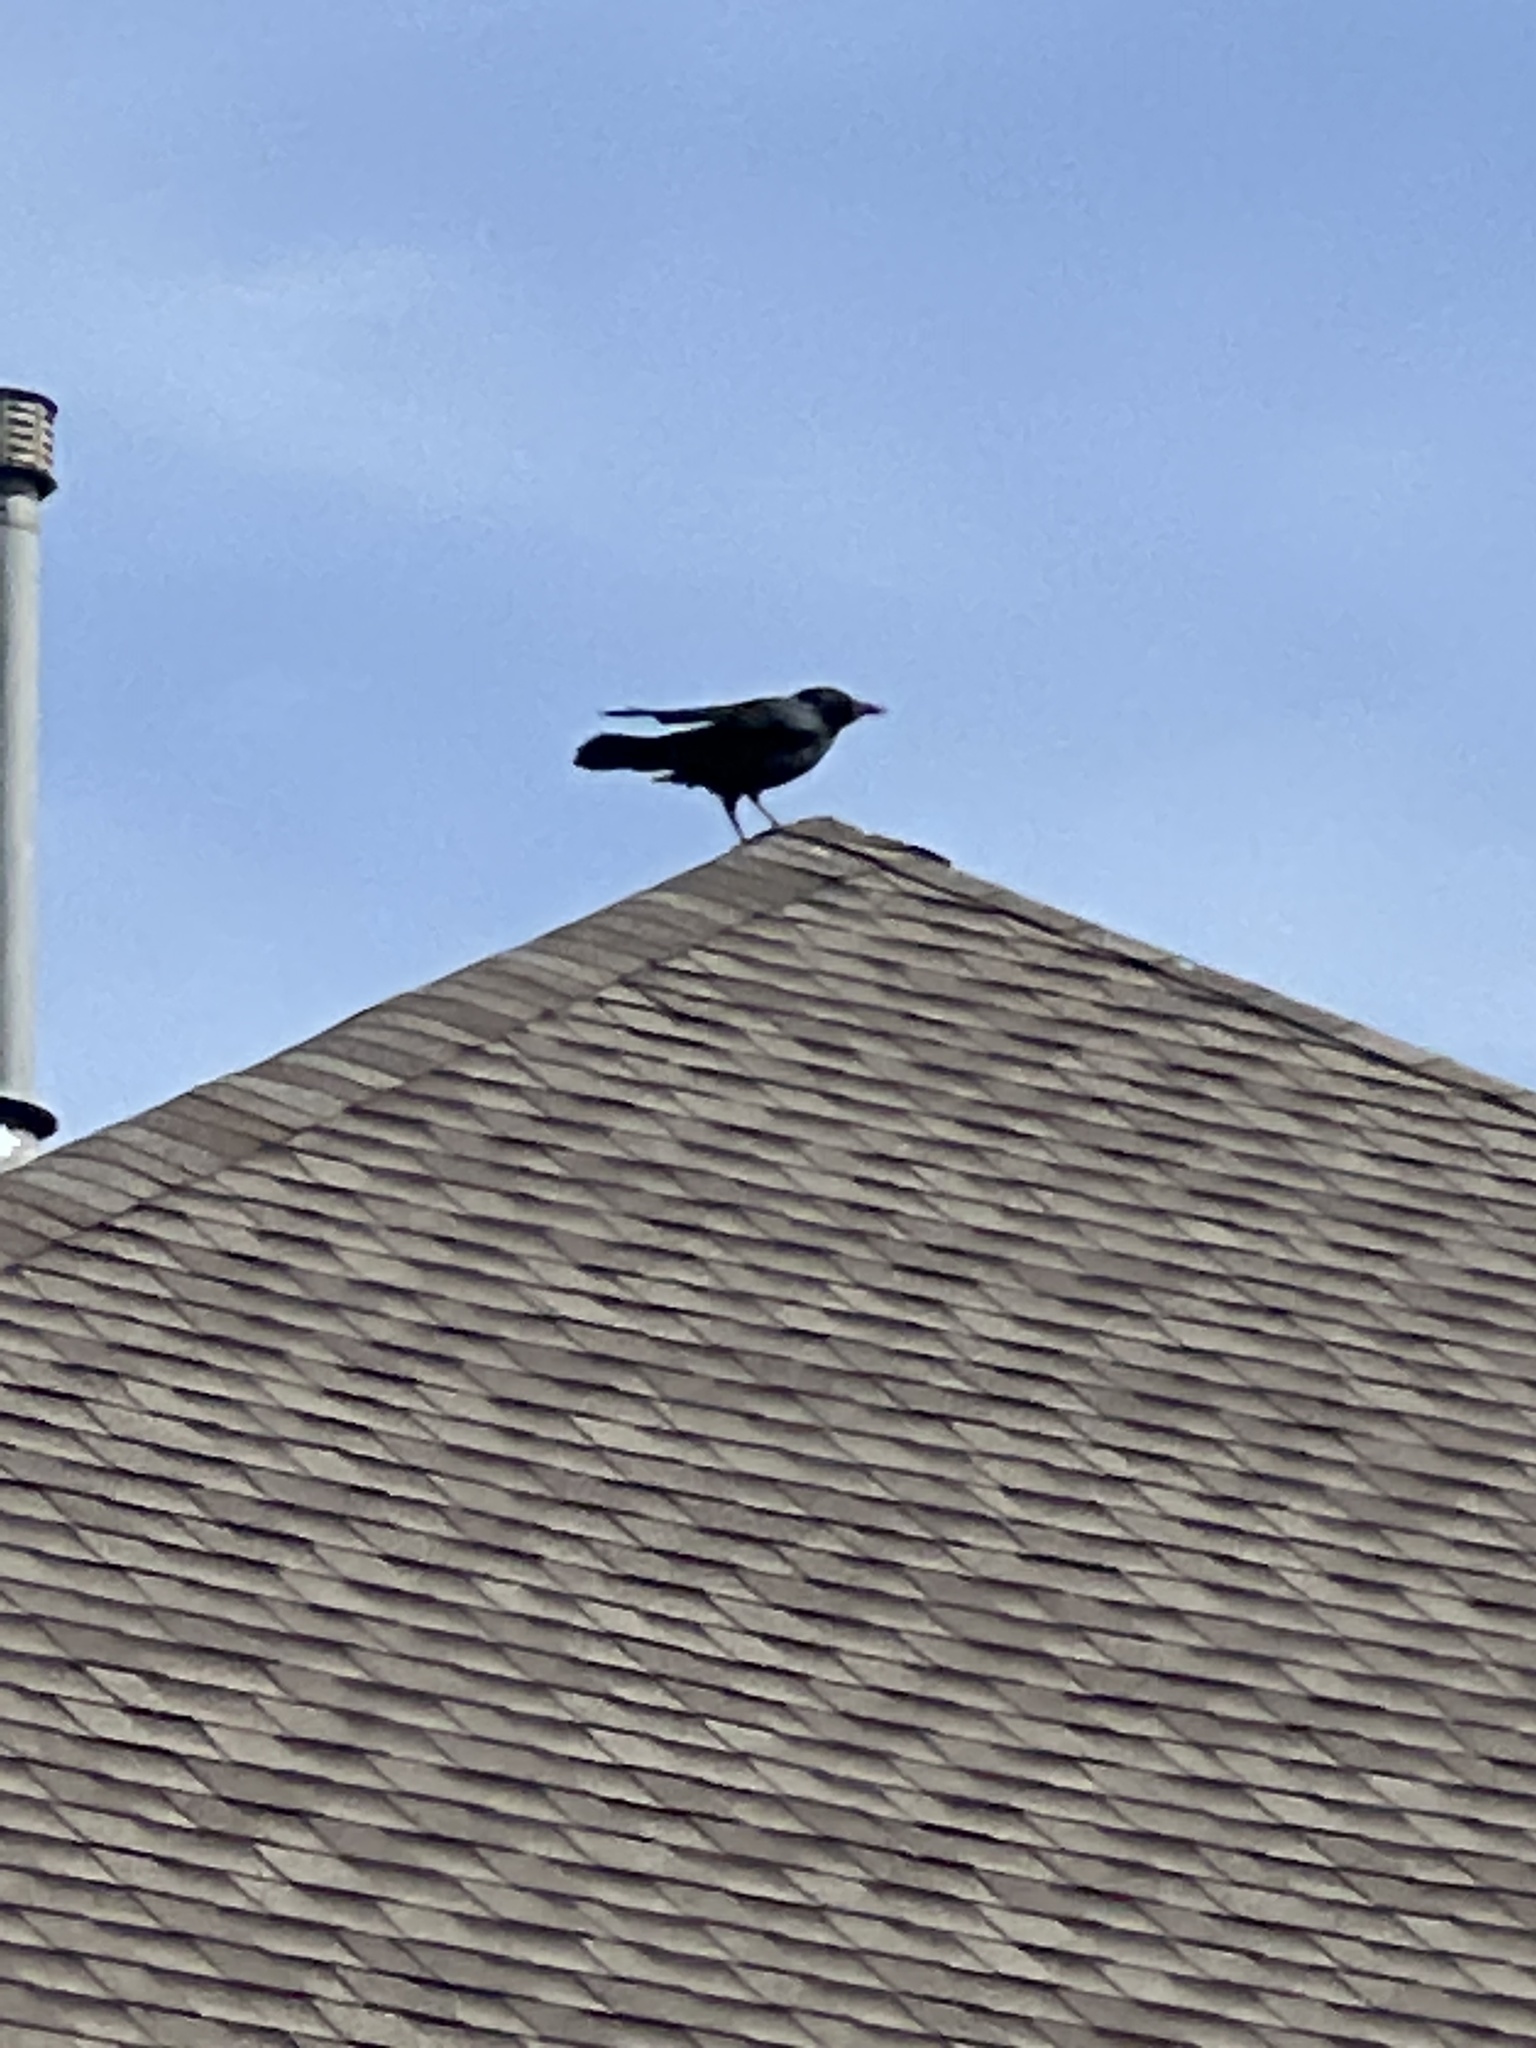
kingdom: Animalia
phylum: Chordata
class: Aves
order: Passeriformes
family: Corvidae
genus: Corvus
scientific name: Corvus brachyrhynchos
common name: American crow
